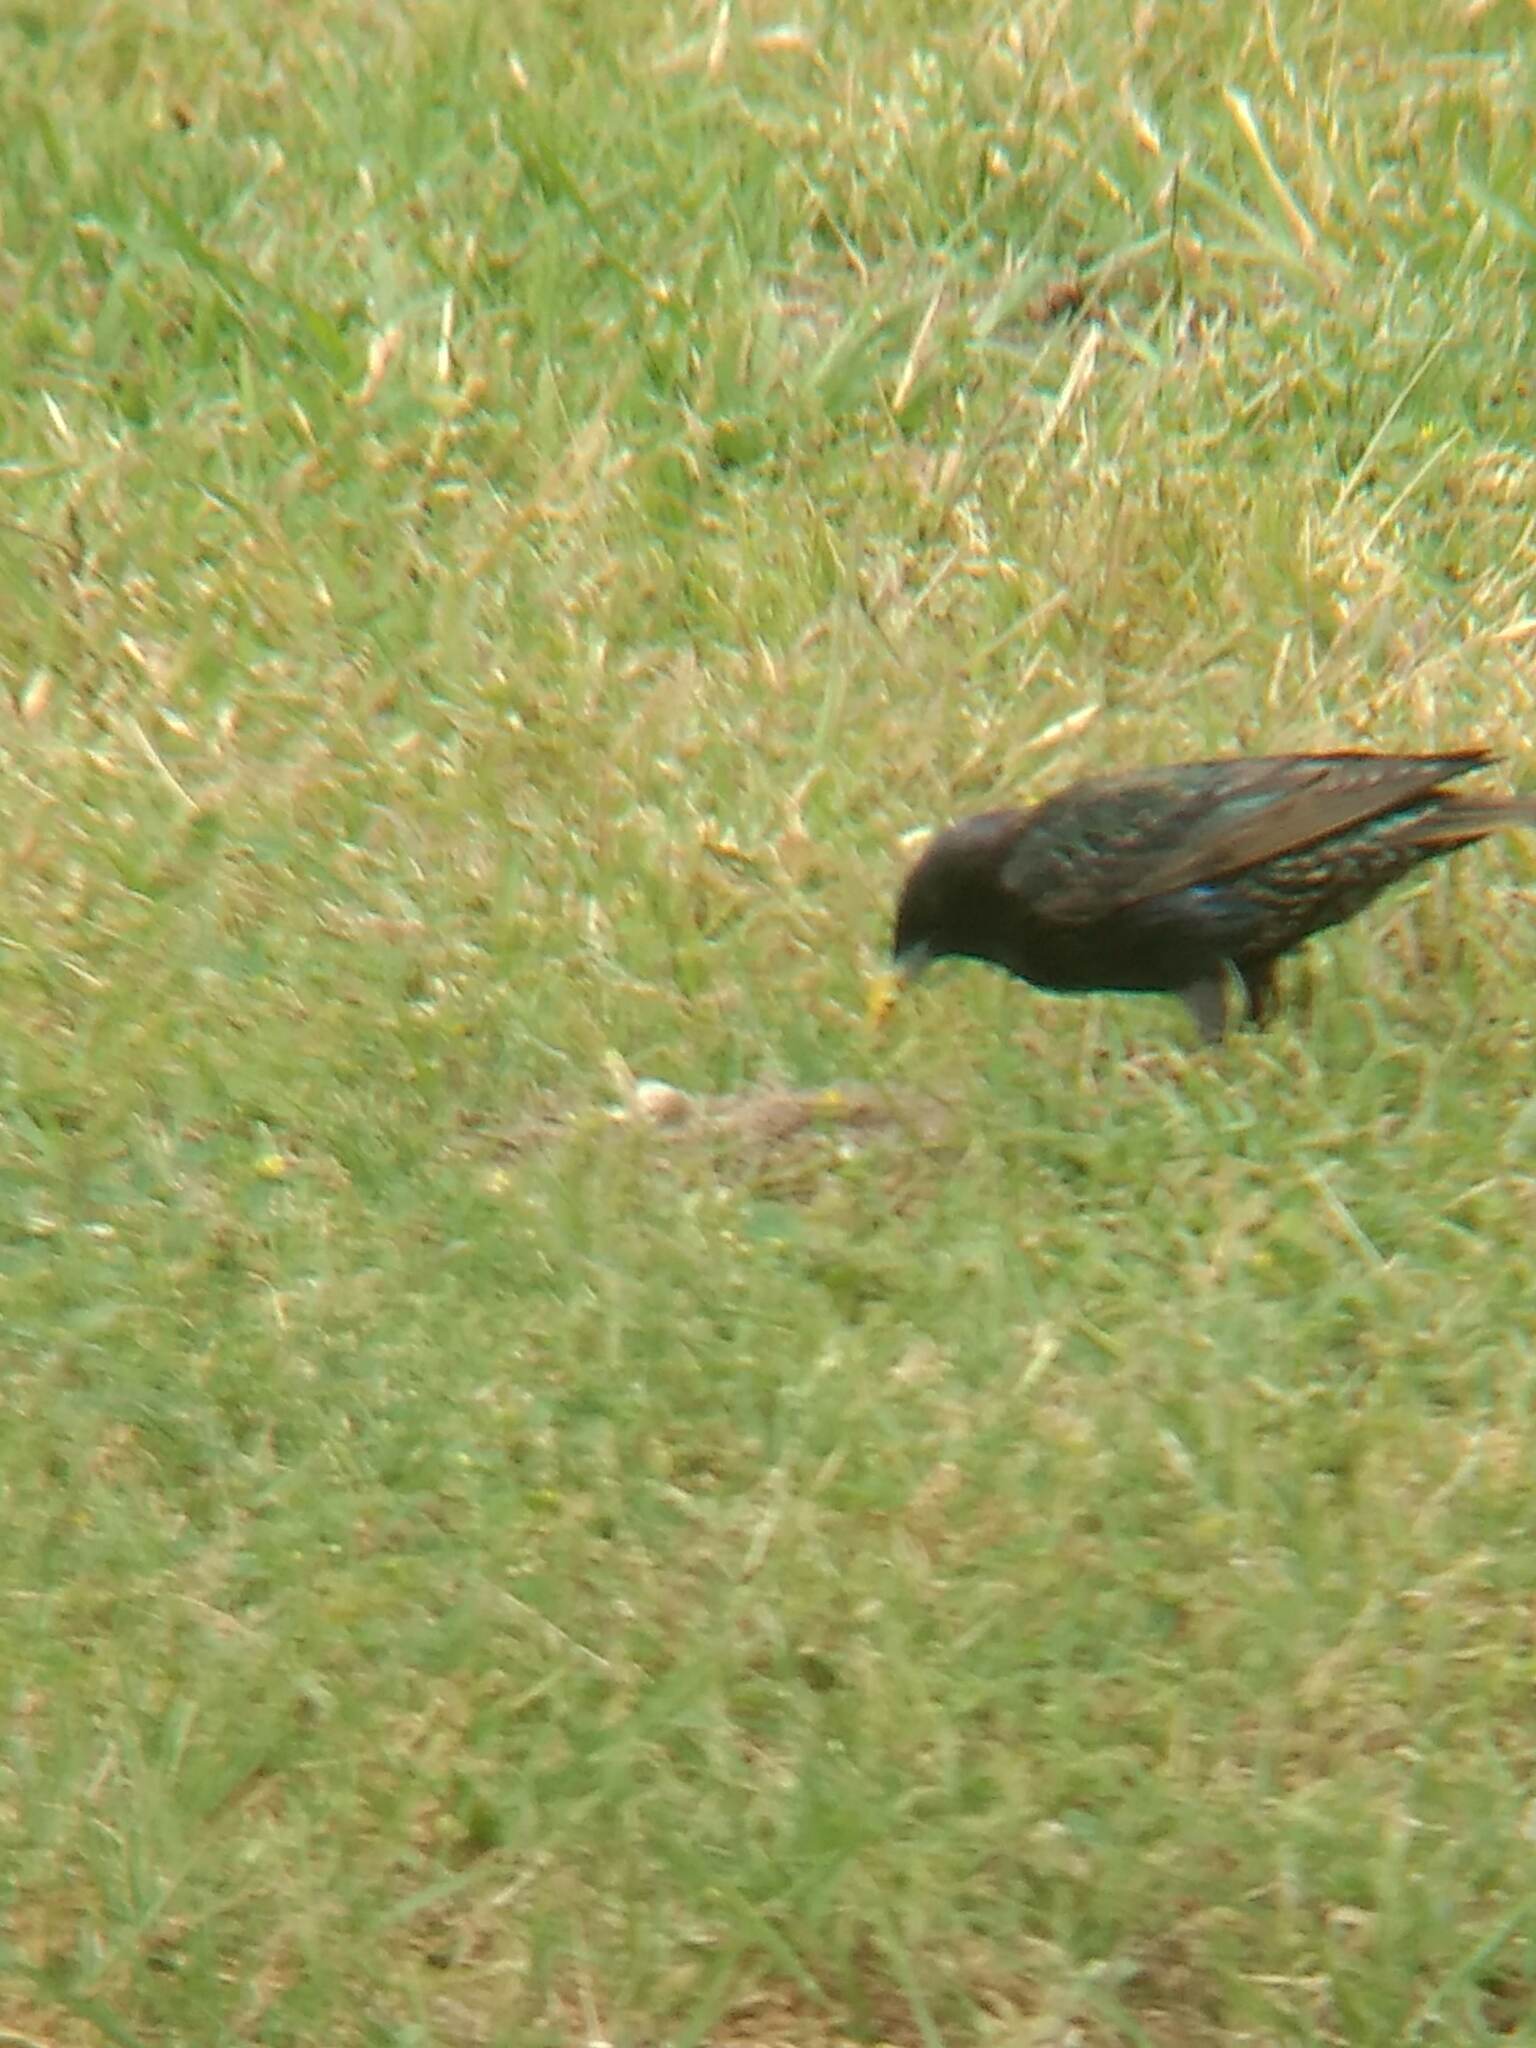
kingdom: Animalia
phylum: Chordata
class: Aves
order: Passeriformes
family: Sturnidae
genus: Sturnus
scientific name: Sturnus vulgaris
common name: Common starling
